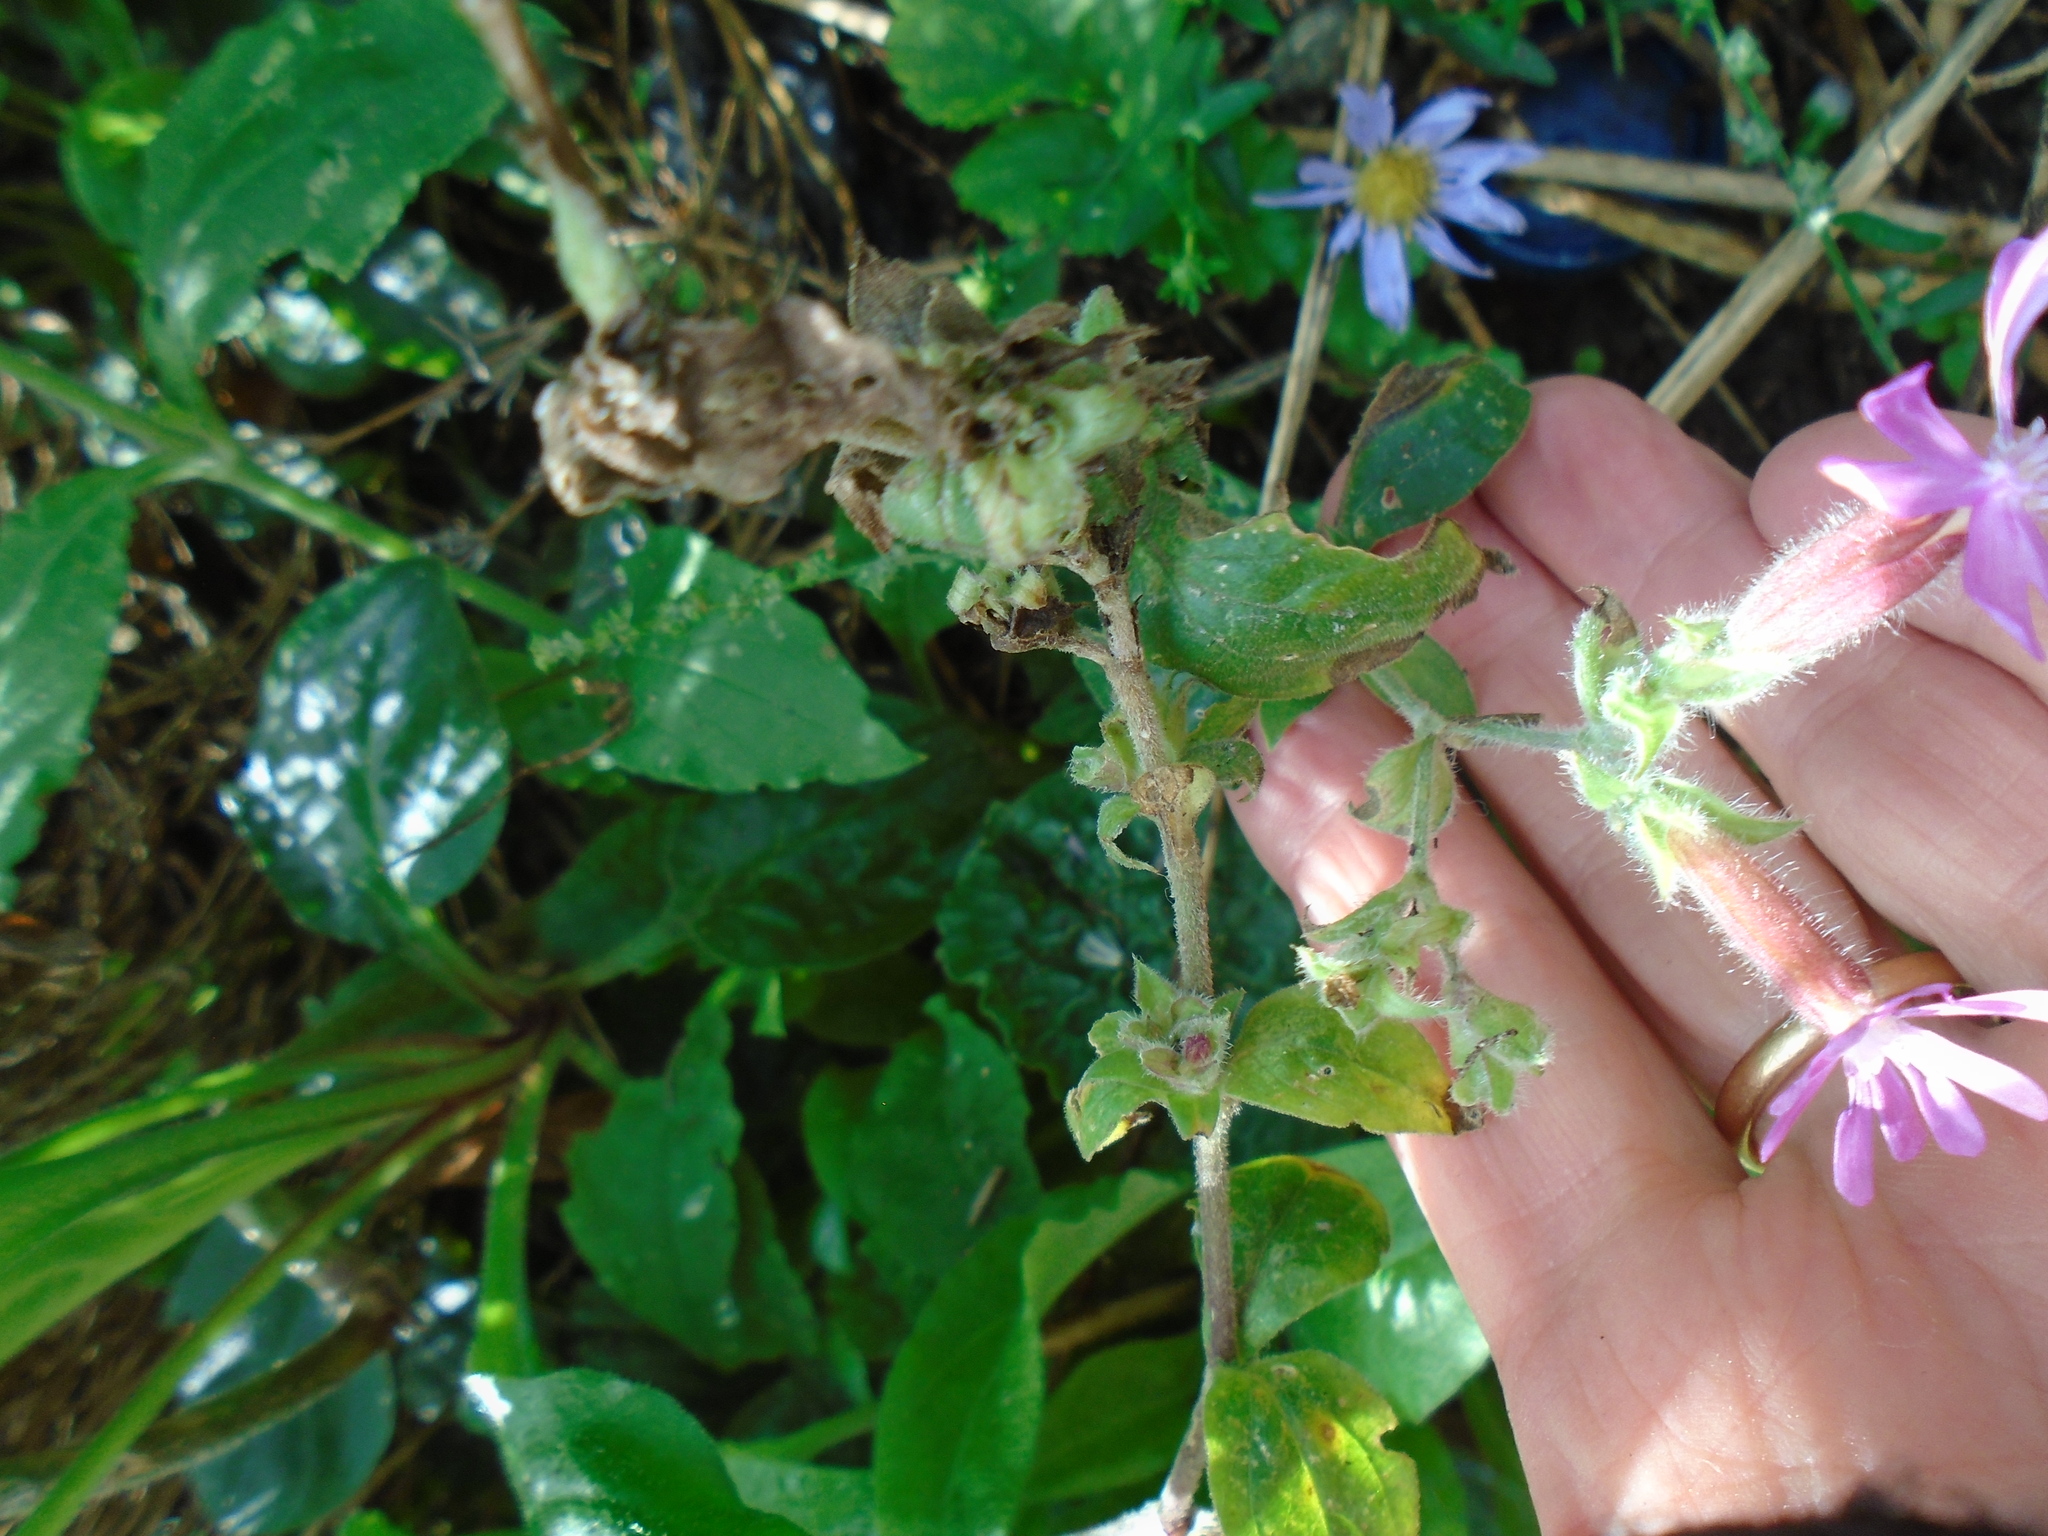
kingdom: Plantae
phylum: Tracheophyta
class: Magnoliopsida
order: Caryophyllales
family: Caryophyllaceae
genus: Silene
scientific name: Silene dioica
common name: Red campion
